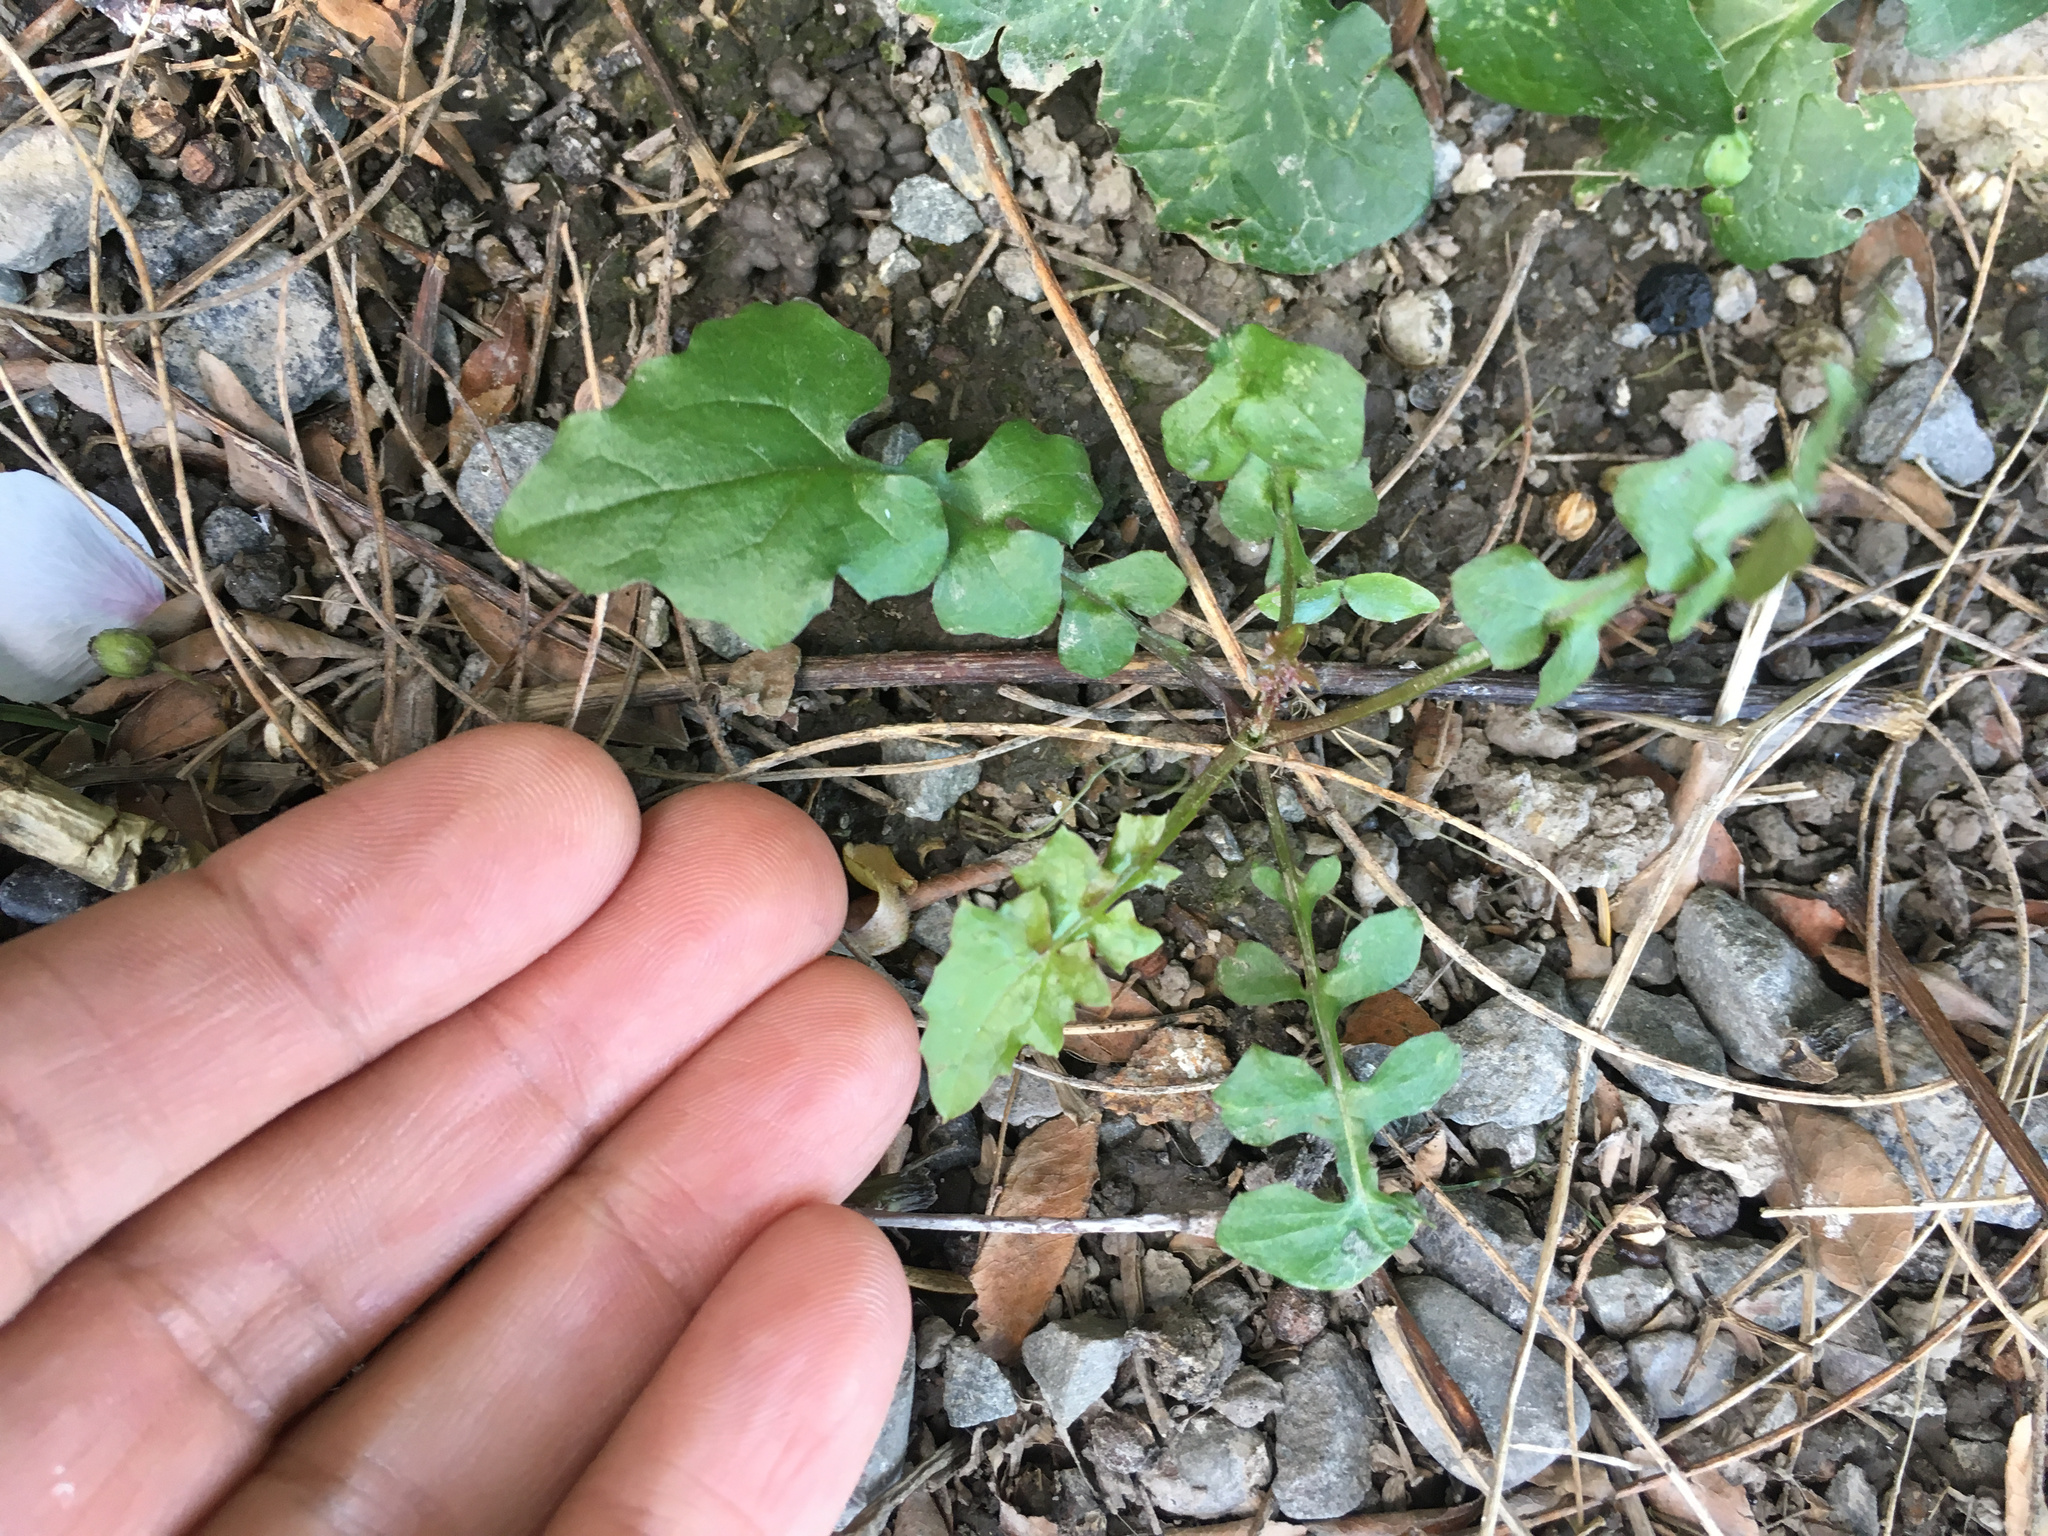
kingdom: Plantae
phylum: Tracheophyta
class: Magnoliopsida
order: Asterales
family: Asteraceae
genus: Mycelis
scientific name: Mycelis muralis
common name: Wall lettuce
